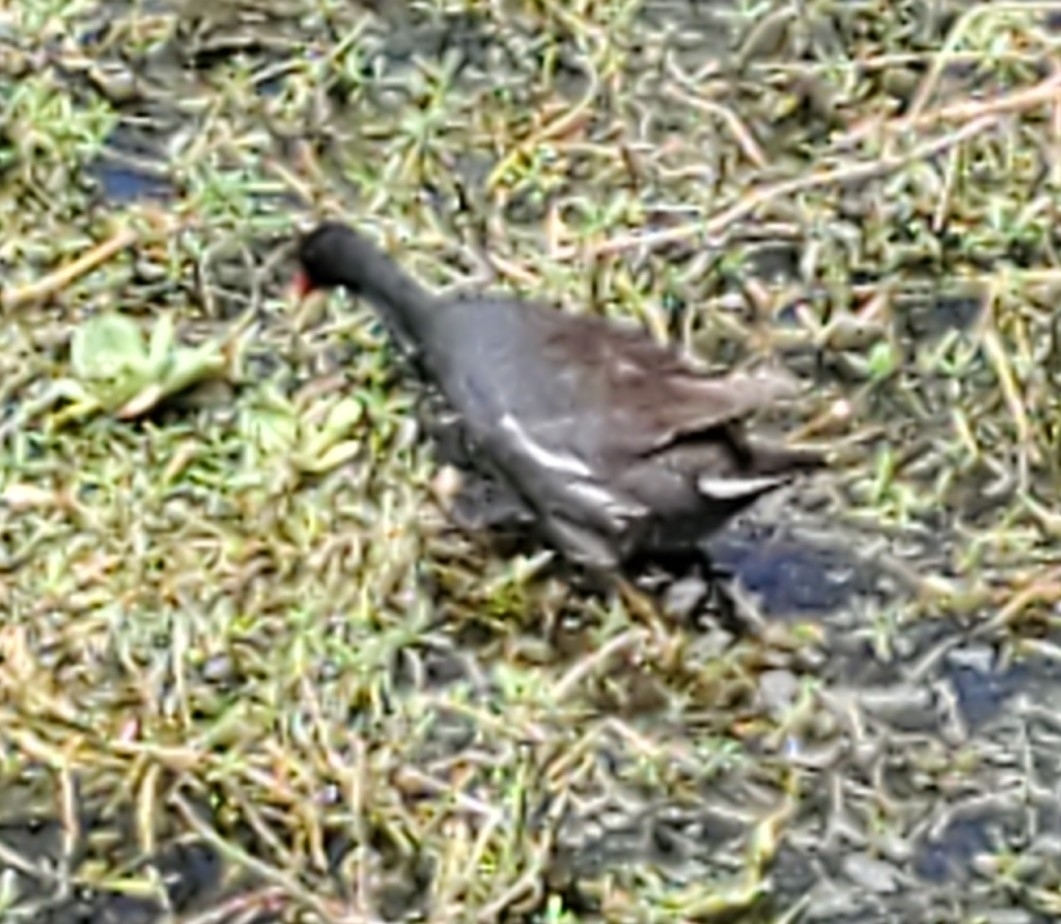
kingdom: Animalia
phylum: Chordata
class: Aves
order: Gruiformes
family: Rallidae
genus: Gallinula
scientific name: Gallinula chloropus
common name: Common moorhen
